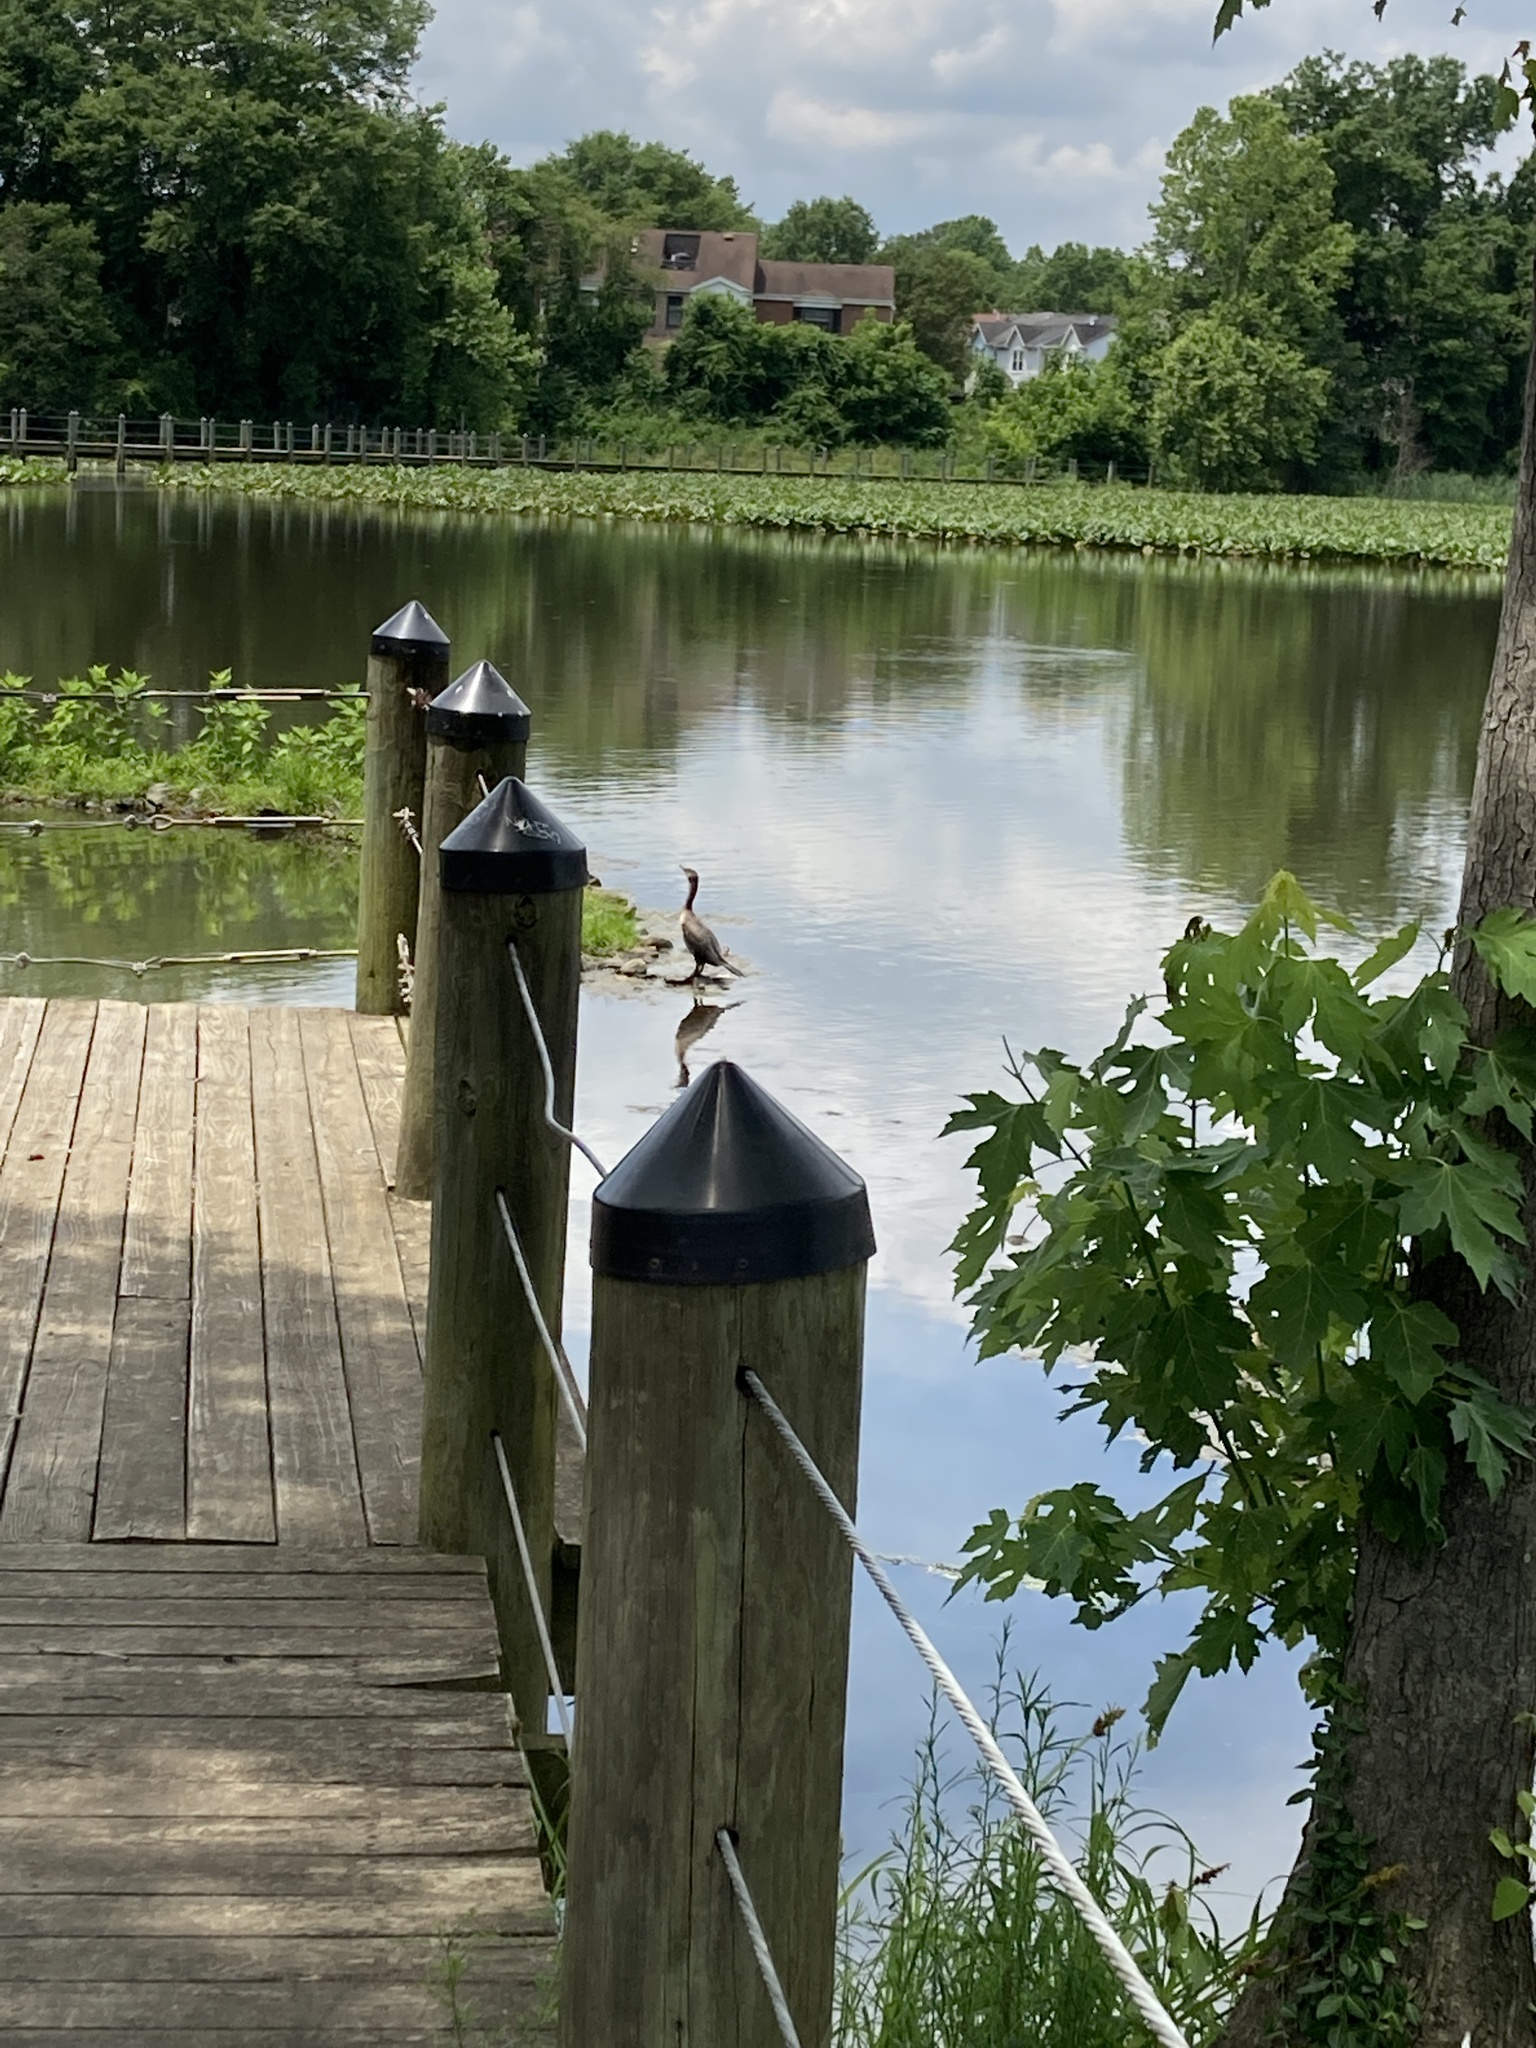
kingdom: Animalia
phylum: Chordata
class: Aves
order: Suliformes
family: Phalacrocoracidae
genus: Phalacrocorax
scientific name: Phalacrocorax auritus
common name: Double-crested cormorant
